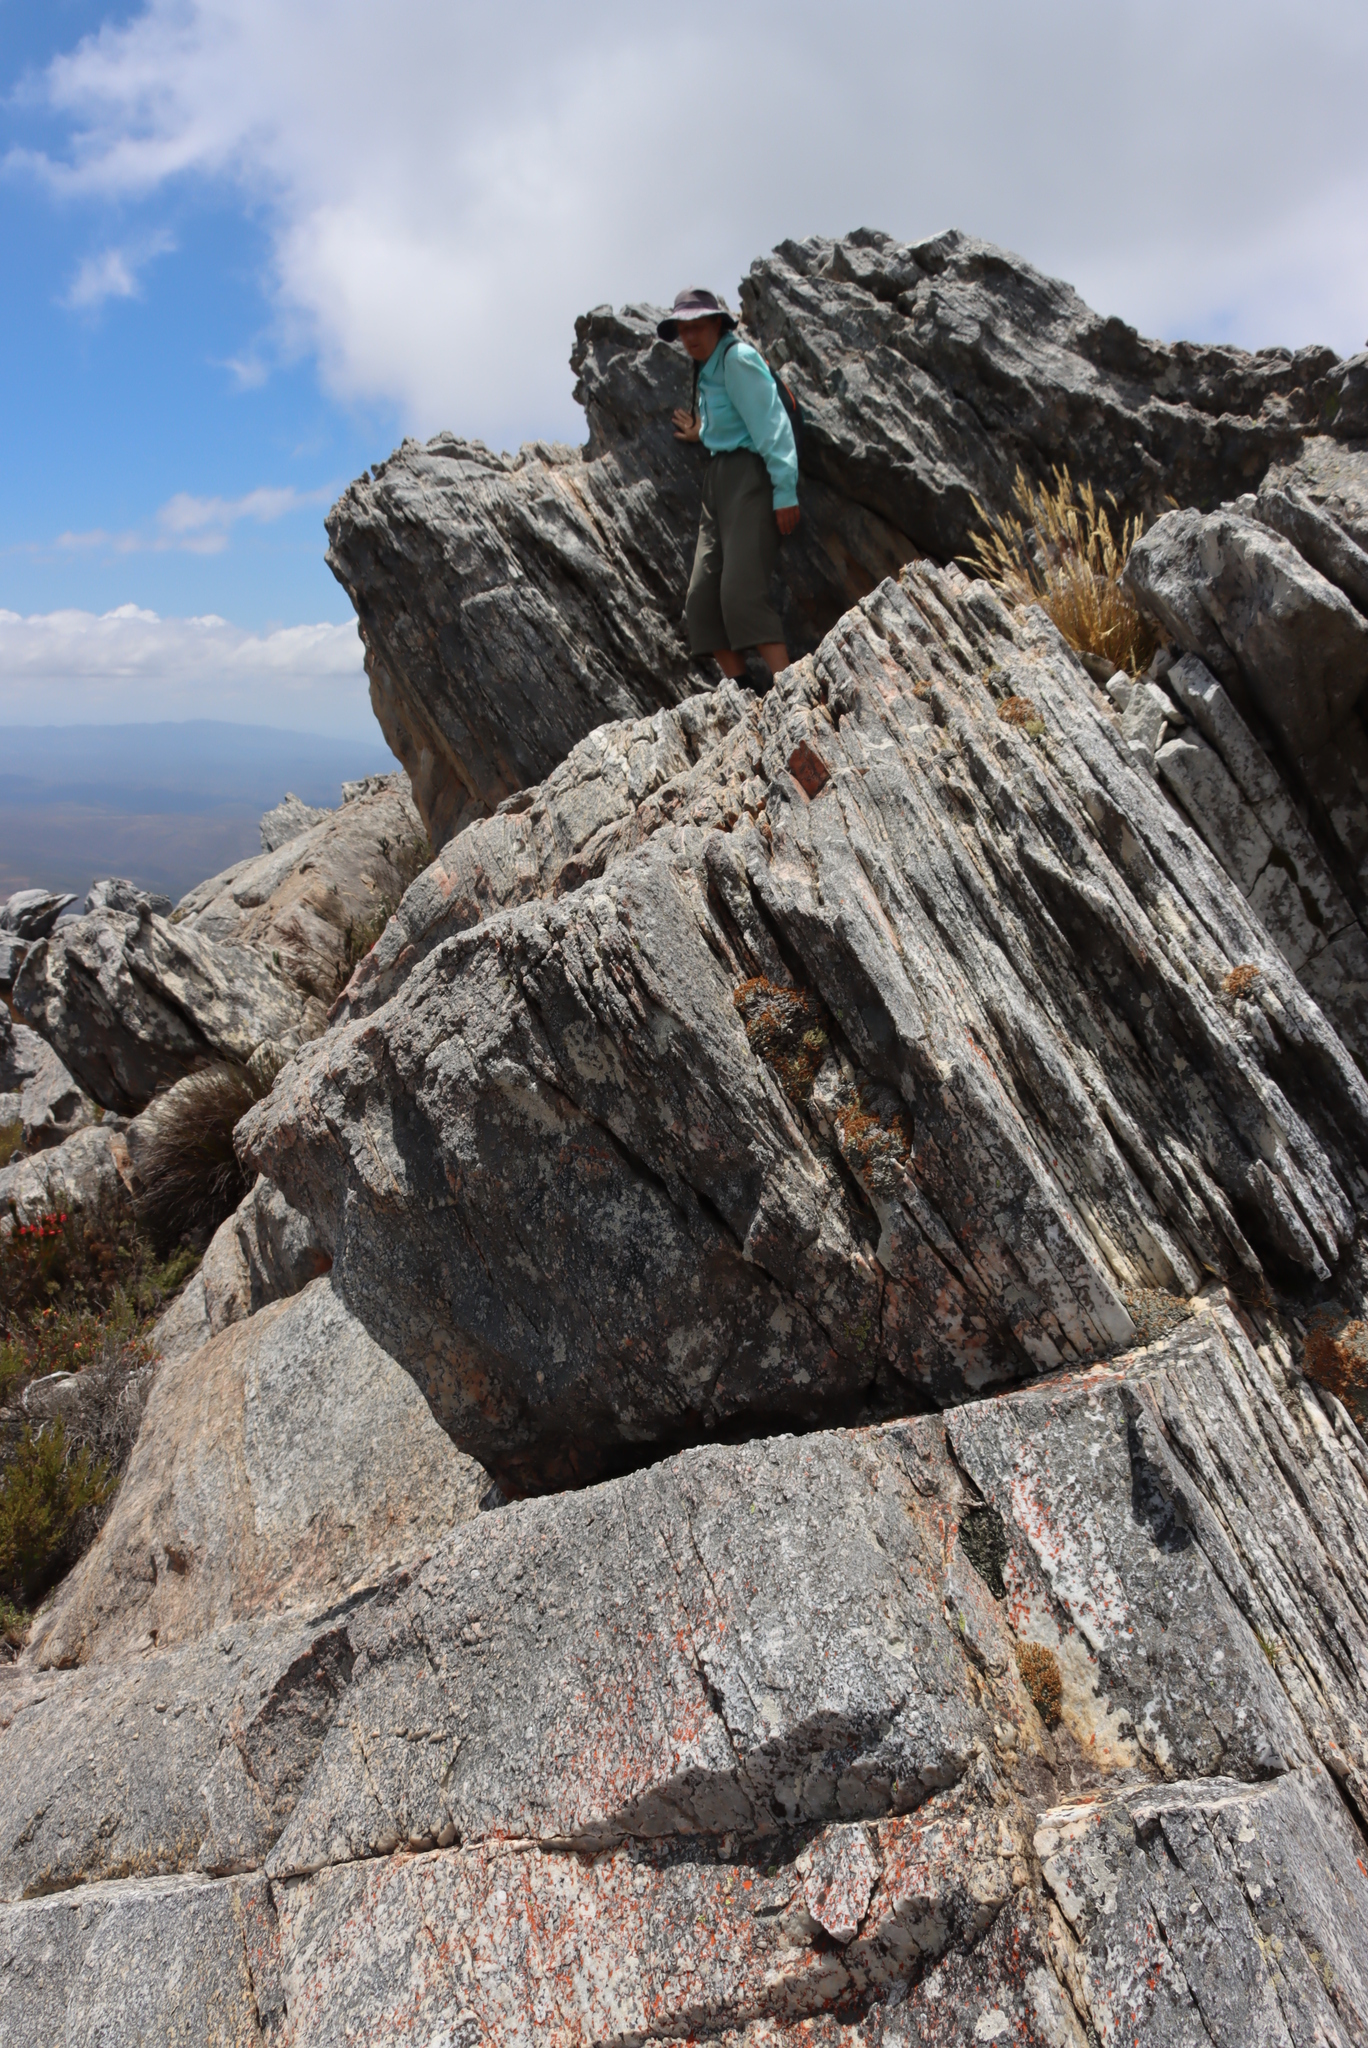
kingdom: Plantae
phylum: Tracheophyta
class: Magnoliopsida
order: Asterales
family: Asteraceae
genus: Muscosomorphe
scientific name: Muscosomorphe aretioides
